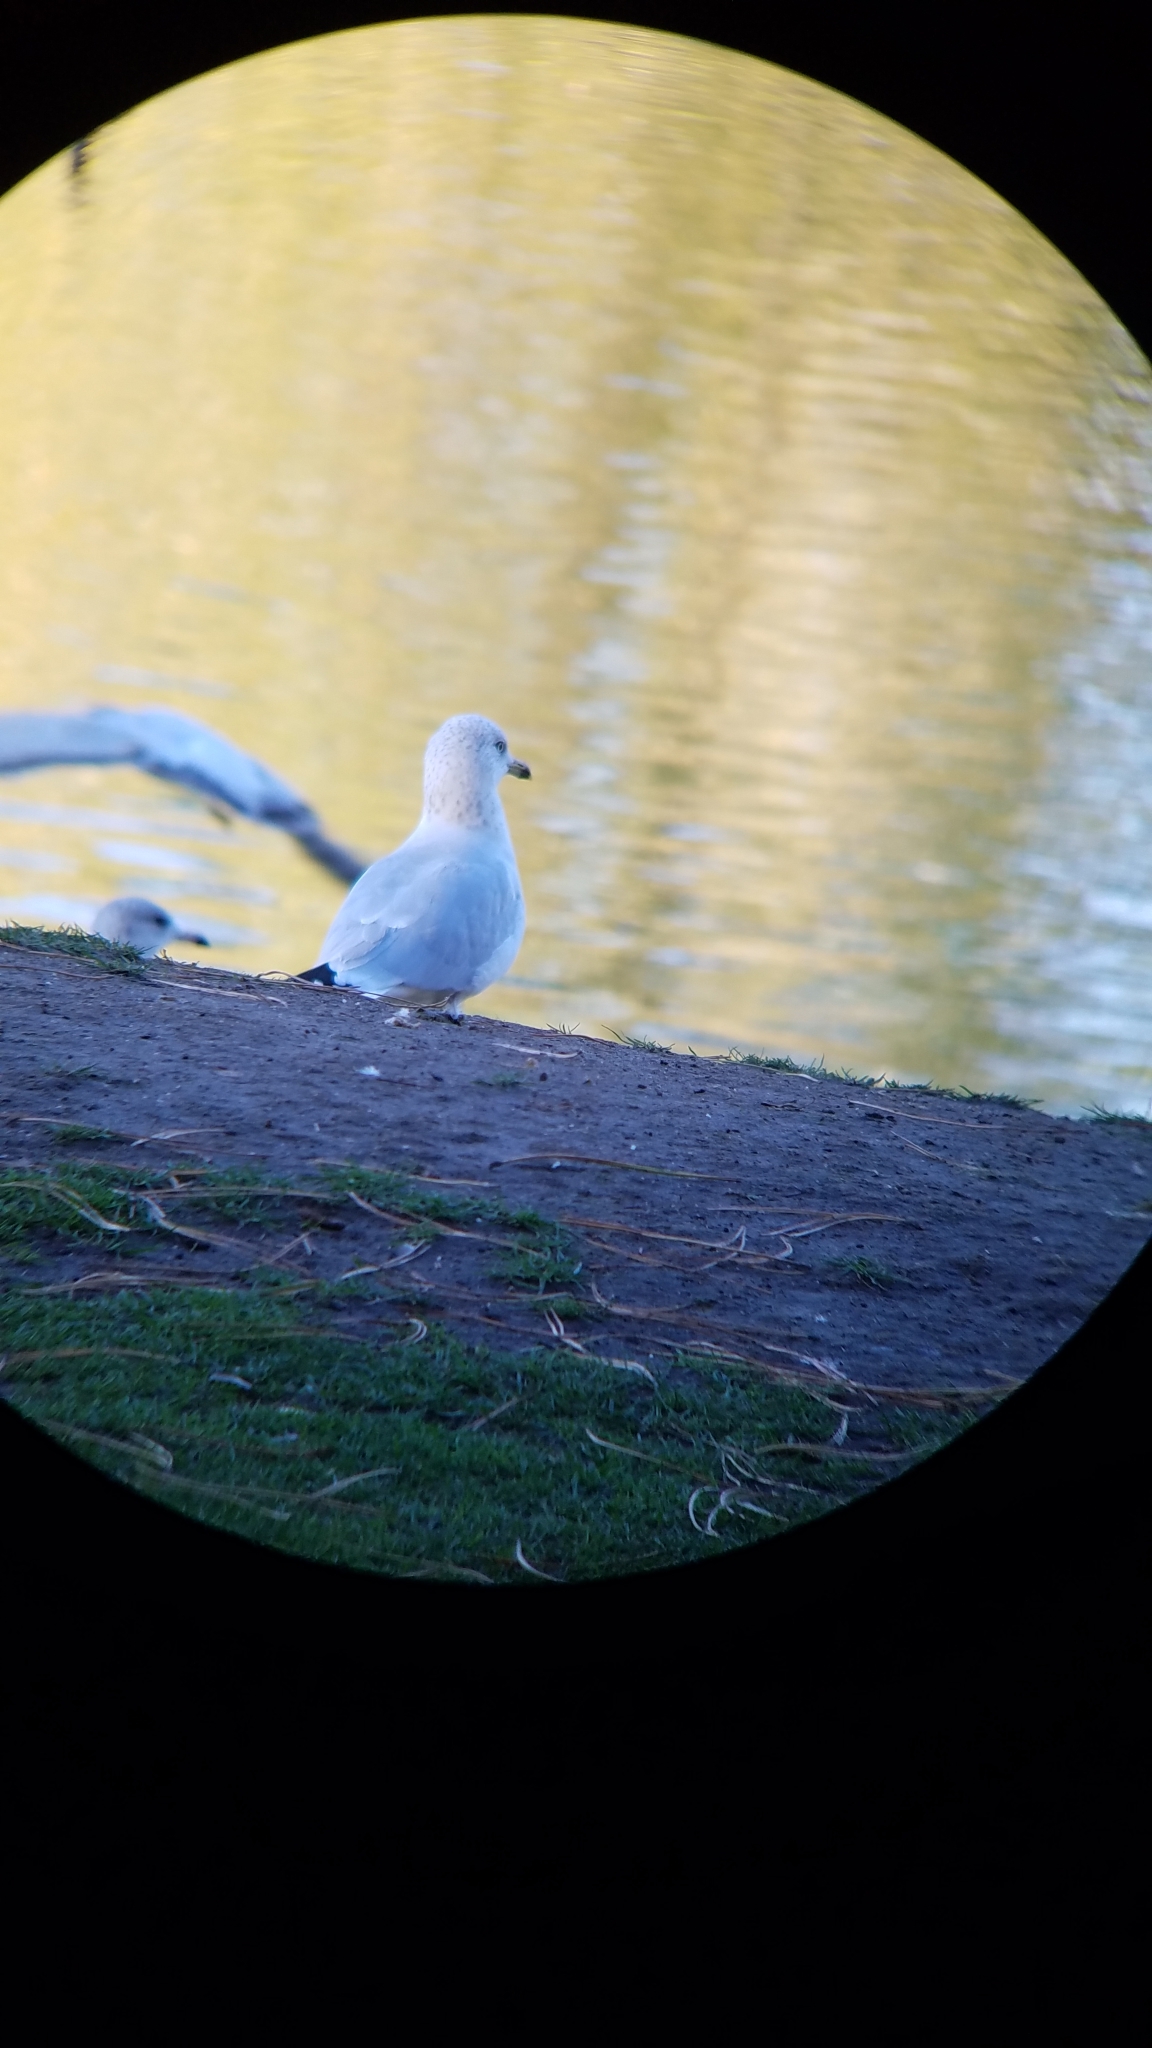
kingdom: Animalia
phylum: Chordata
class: Aves
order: Charadriiformes
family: Laridae
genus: Larus
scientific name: Larus delawarensis
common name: Ring-billed gull
